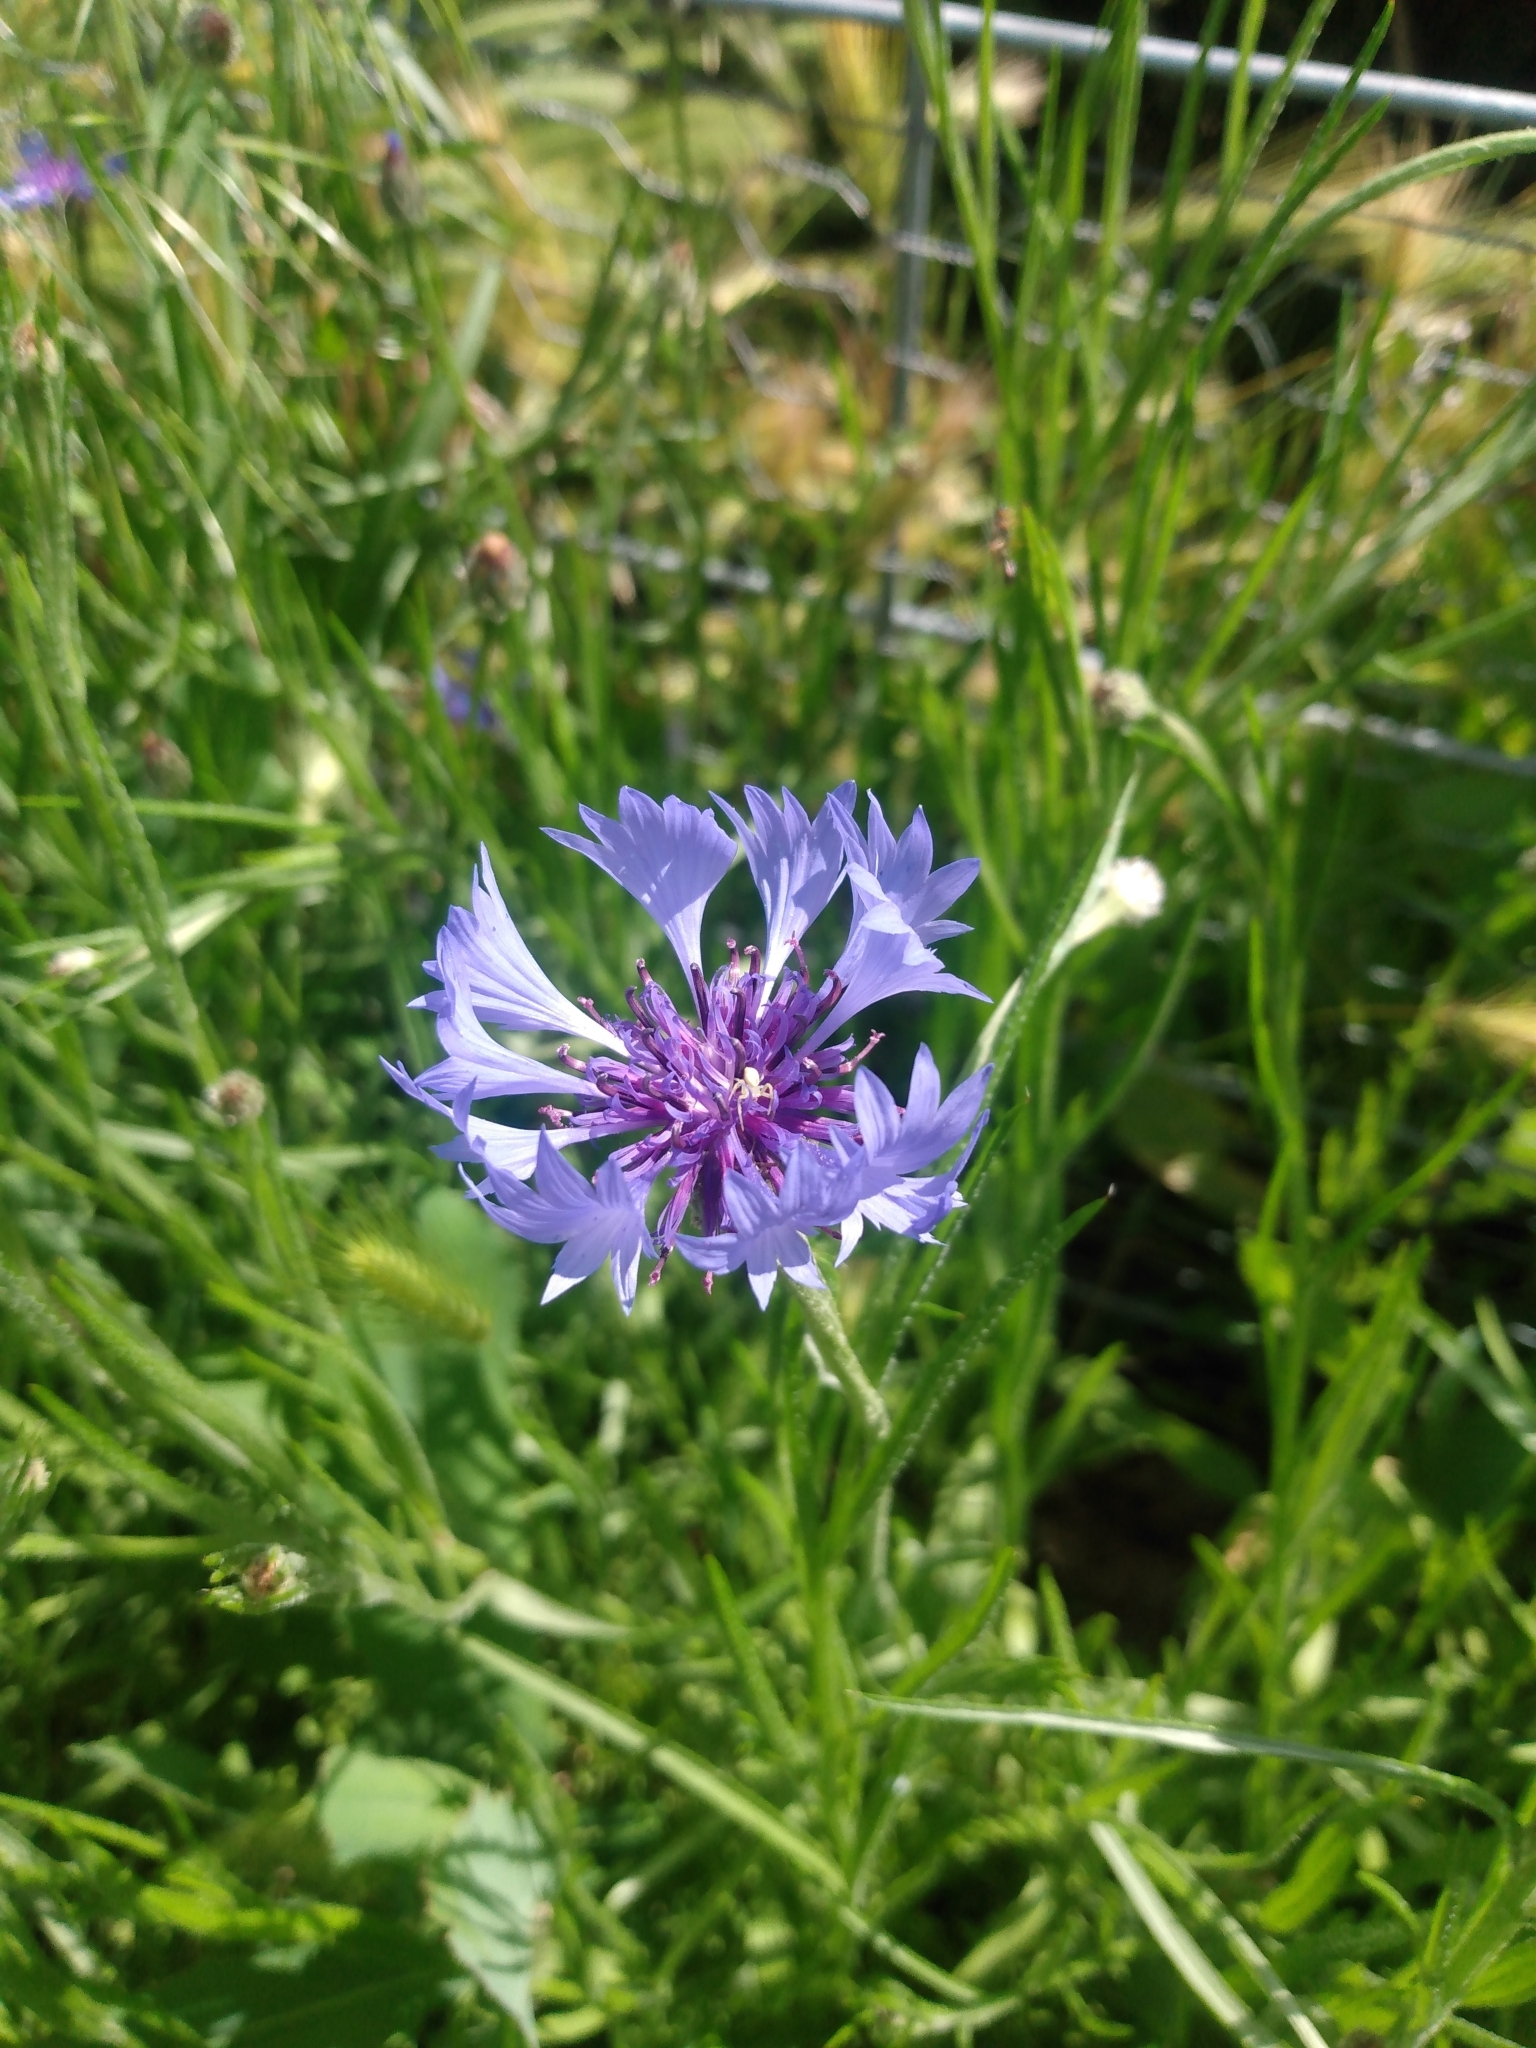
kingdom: Plantae
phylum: Tracheophyta
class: Magnoliopsida
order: Asterales
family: Asteraceae
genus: Centaurea
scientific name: Centaurea cyanus
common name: Cornflower
